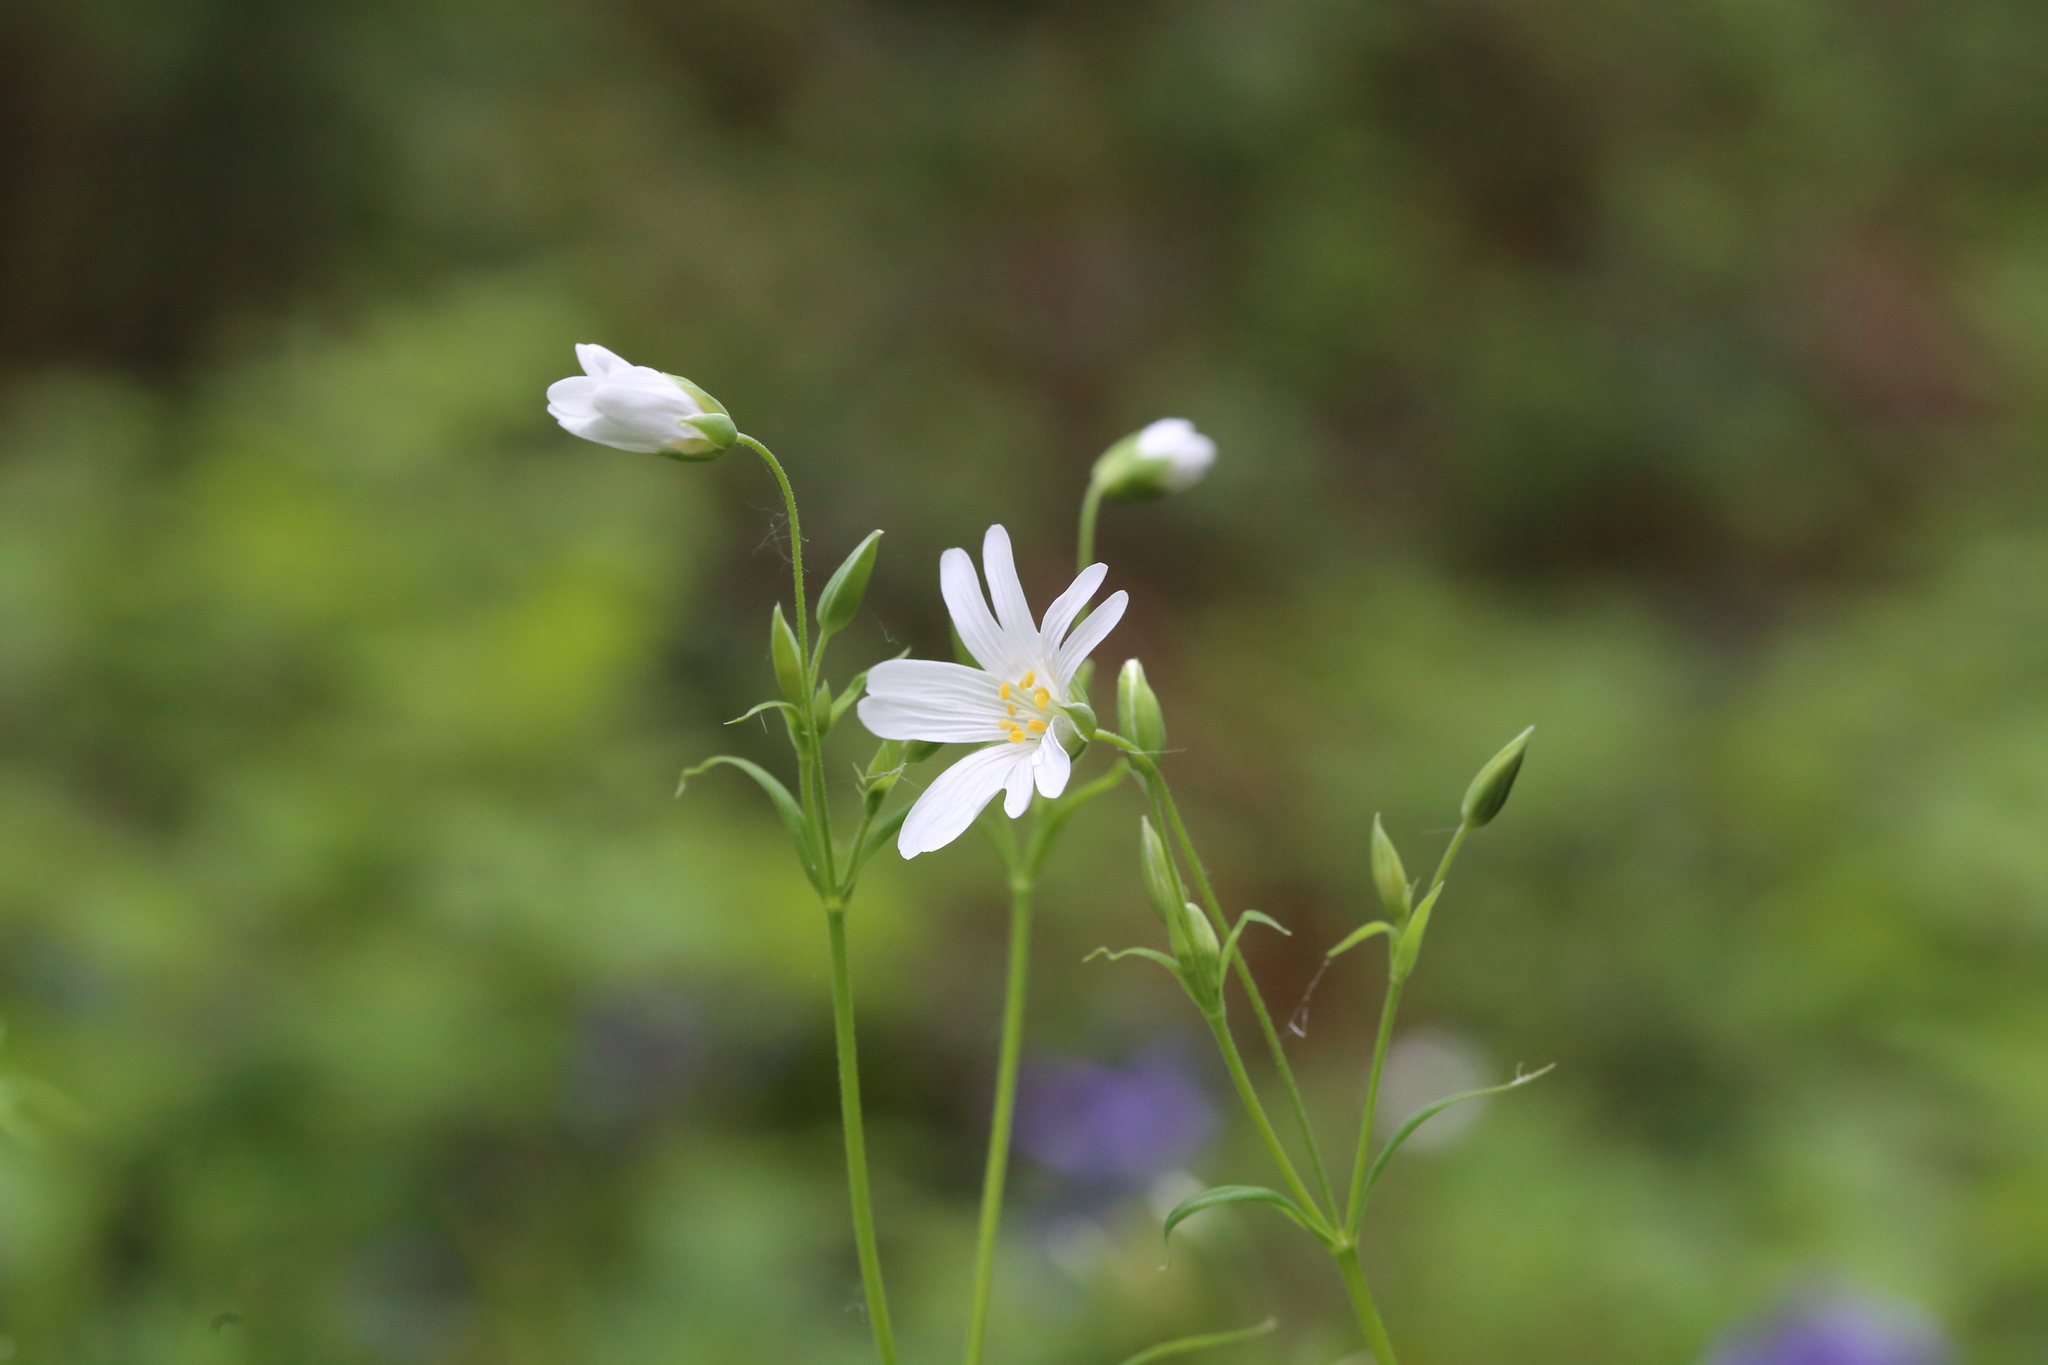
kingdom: Plantae
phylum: Tracheophyta
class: Magnoliopsida
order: Caryophyllales
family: Caryophyllaceae
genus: Rabelera
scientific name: Rabelera holostea
